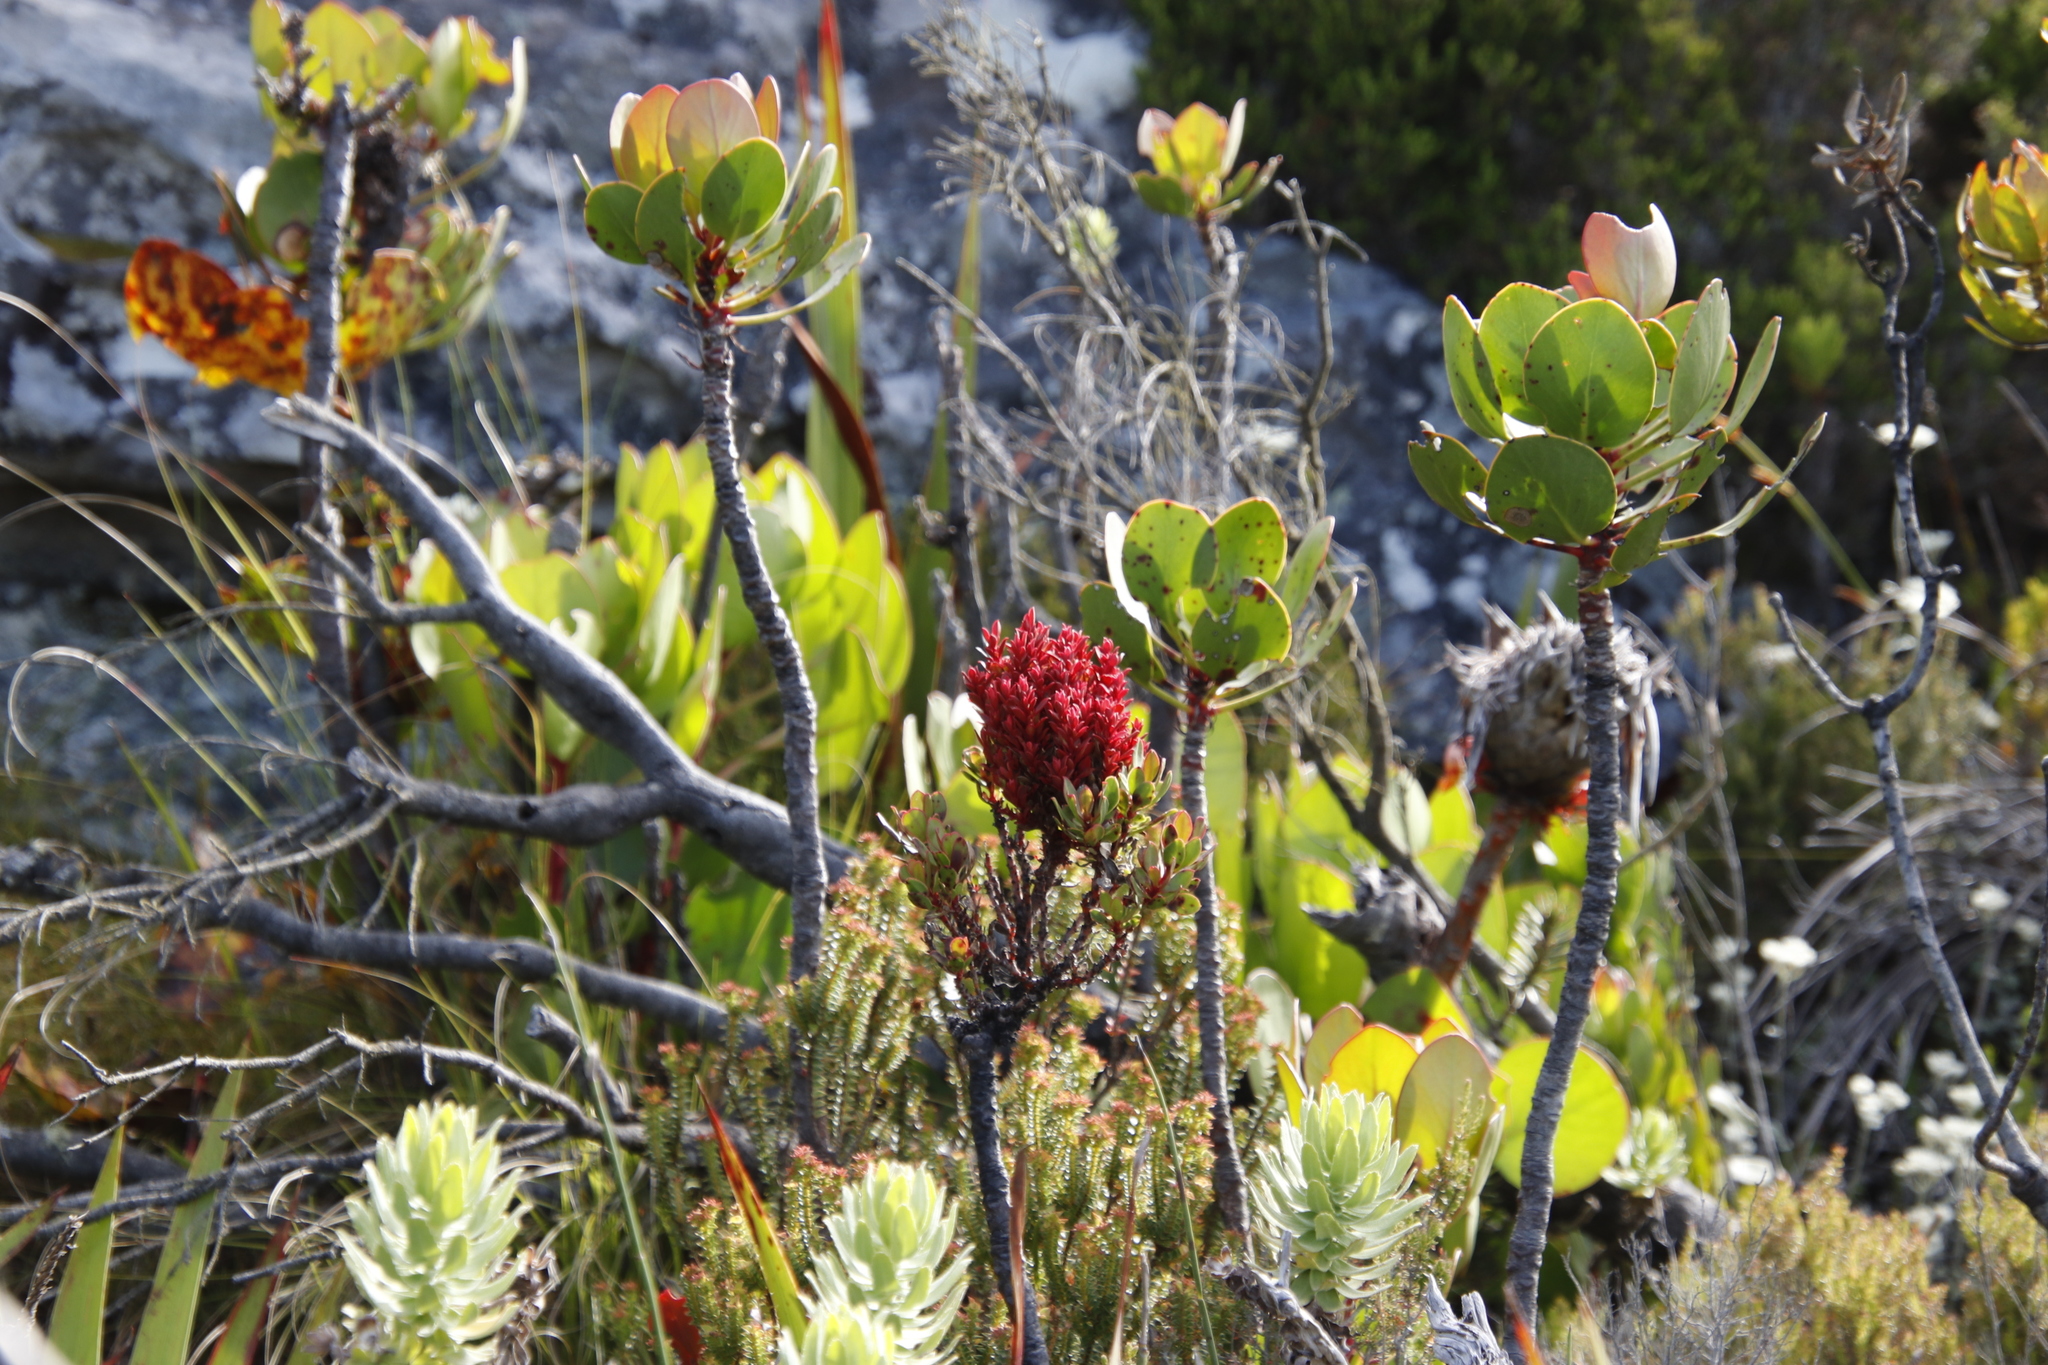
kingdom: Bacteria
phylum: Firmicutes
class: Bacilli
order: Acholeplasmatales
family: Acholeplasmataceae
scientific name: Acholeplasmataceae
